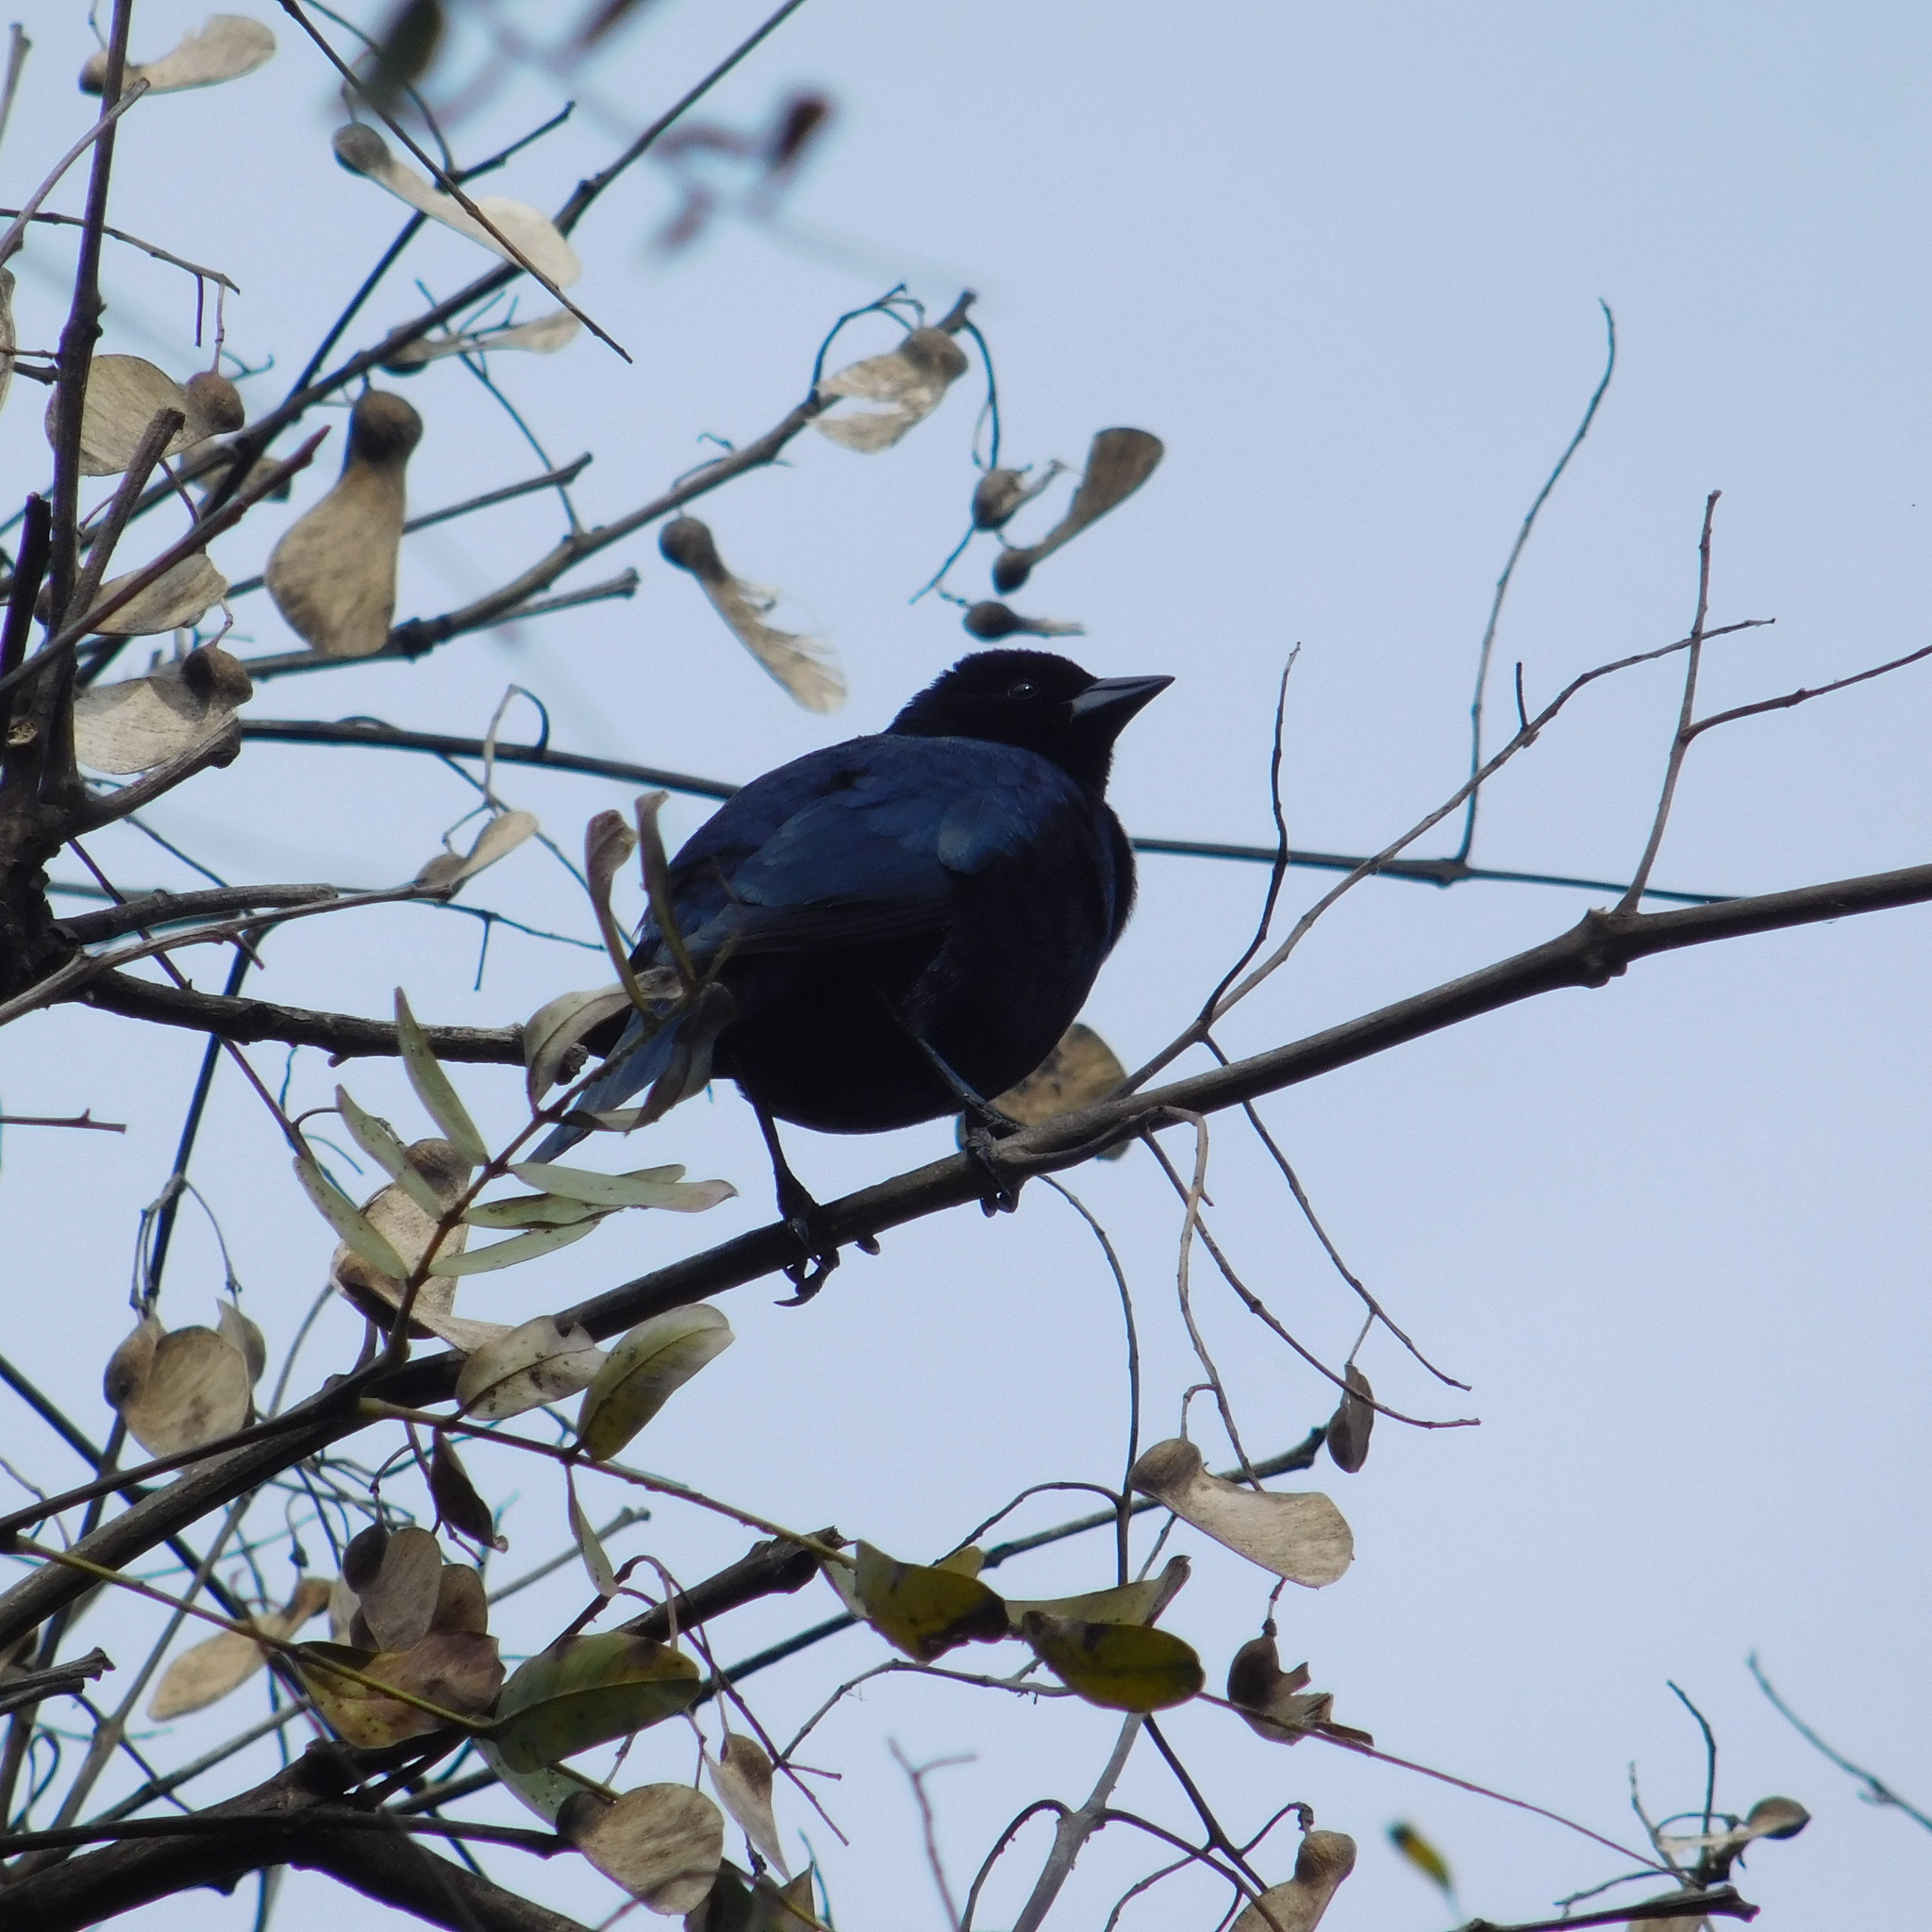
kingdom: Animalia
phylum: Chordata
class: Aves
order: Passeriformes
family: Icteridae
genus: Molothrus
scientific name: Molothrus bonariensis
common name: Shiny cowbird
